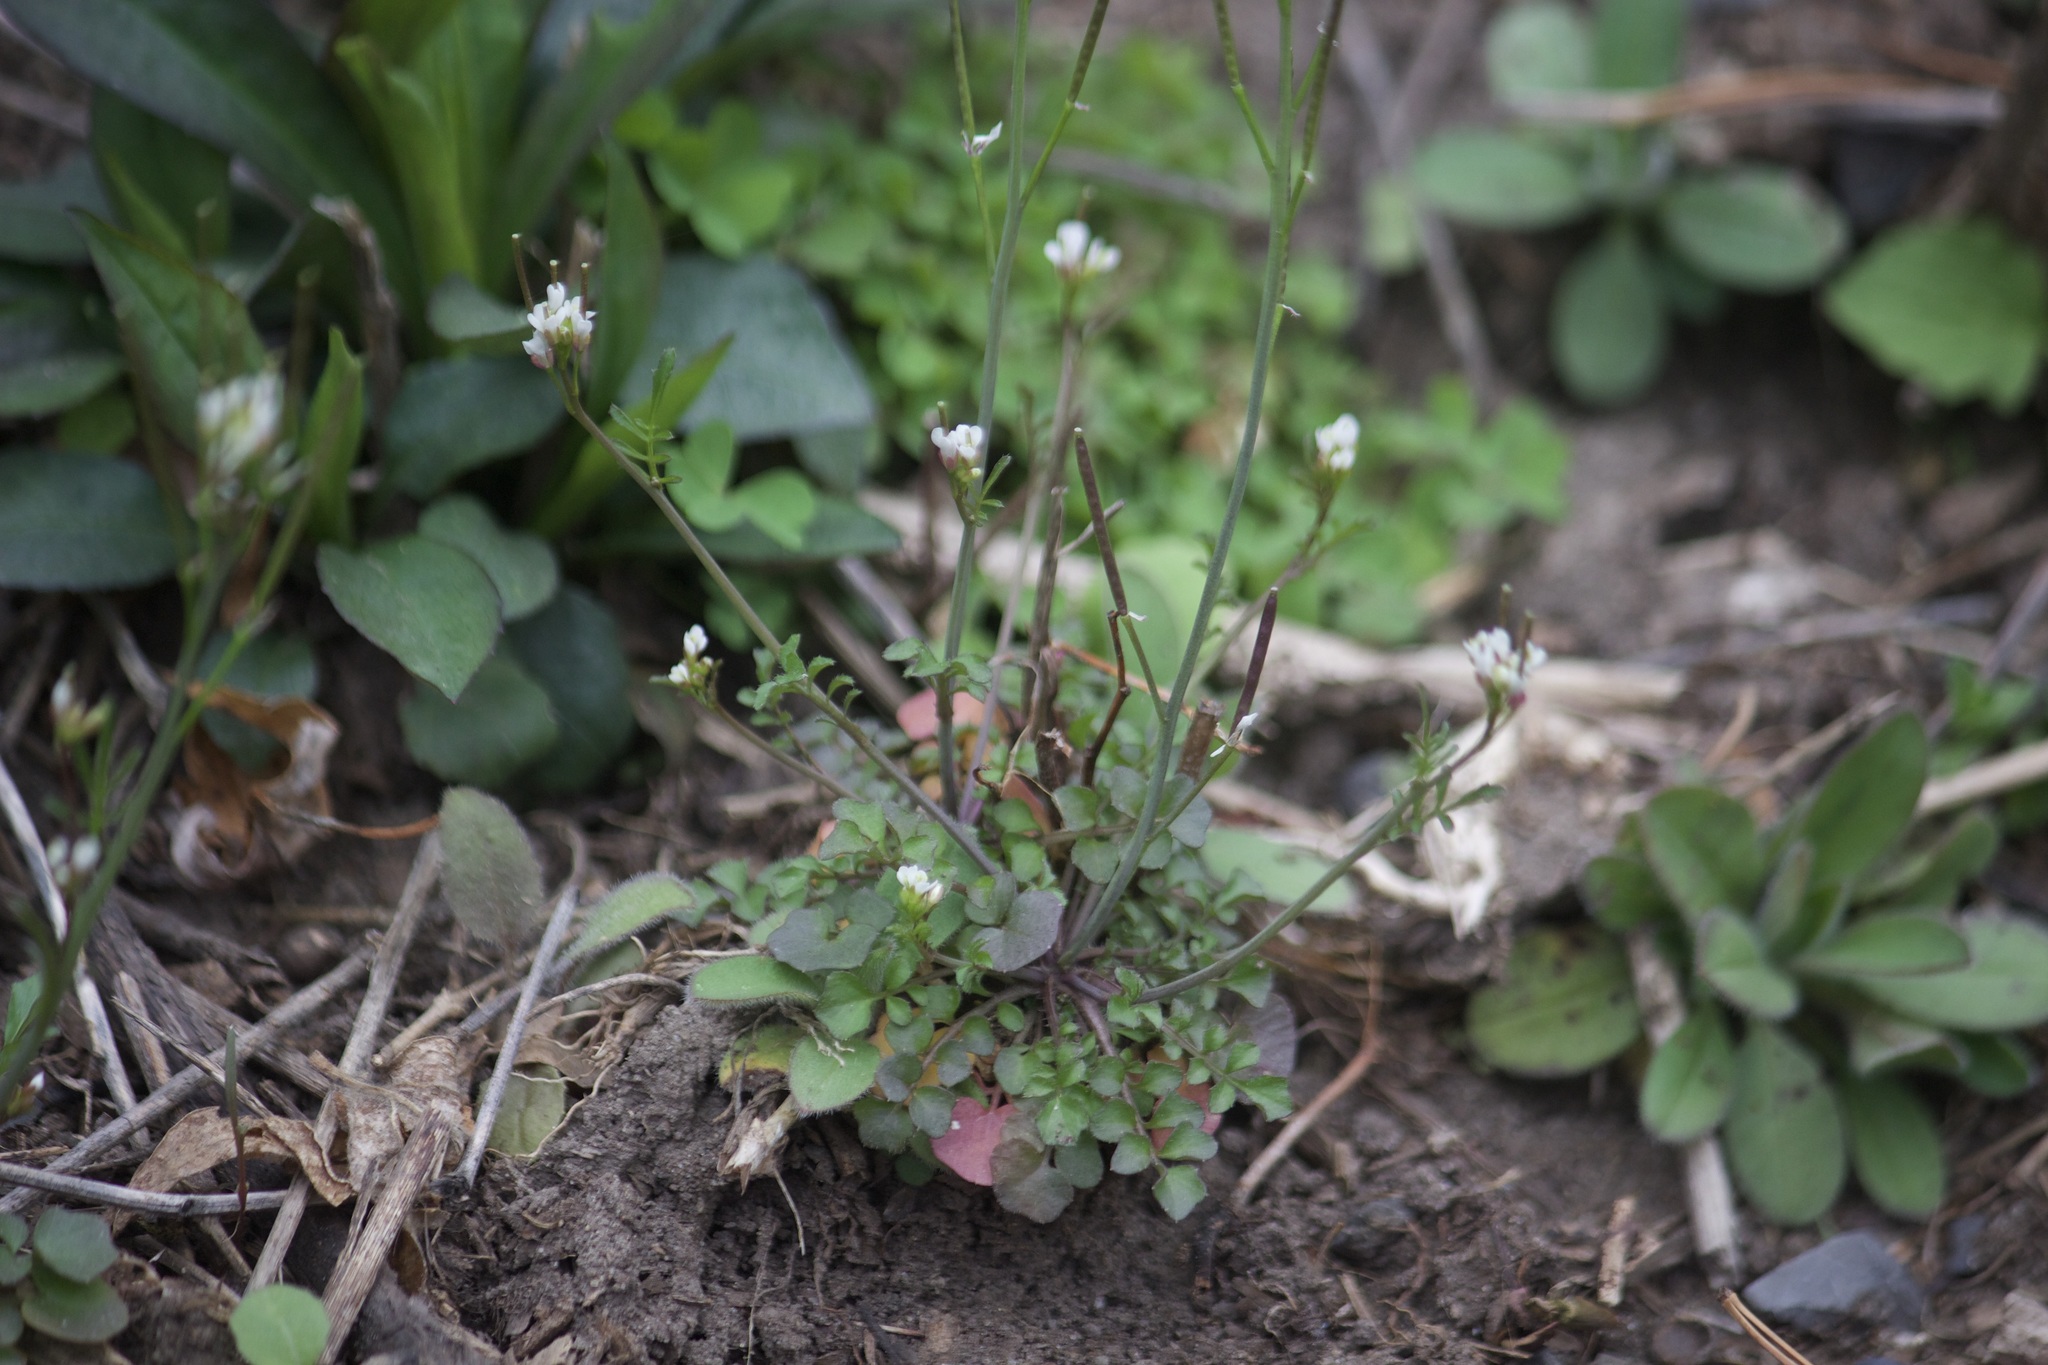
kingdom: Plantae
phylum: Tracheophyta
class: Magnoliopsida
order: Brassicales
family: Brassicaceae
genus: Cardamine
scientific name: Cardamine hirsuta
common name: Hairy bittercress
